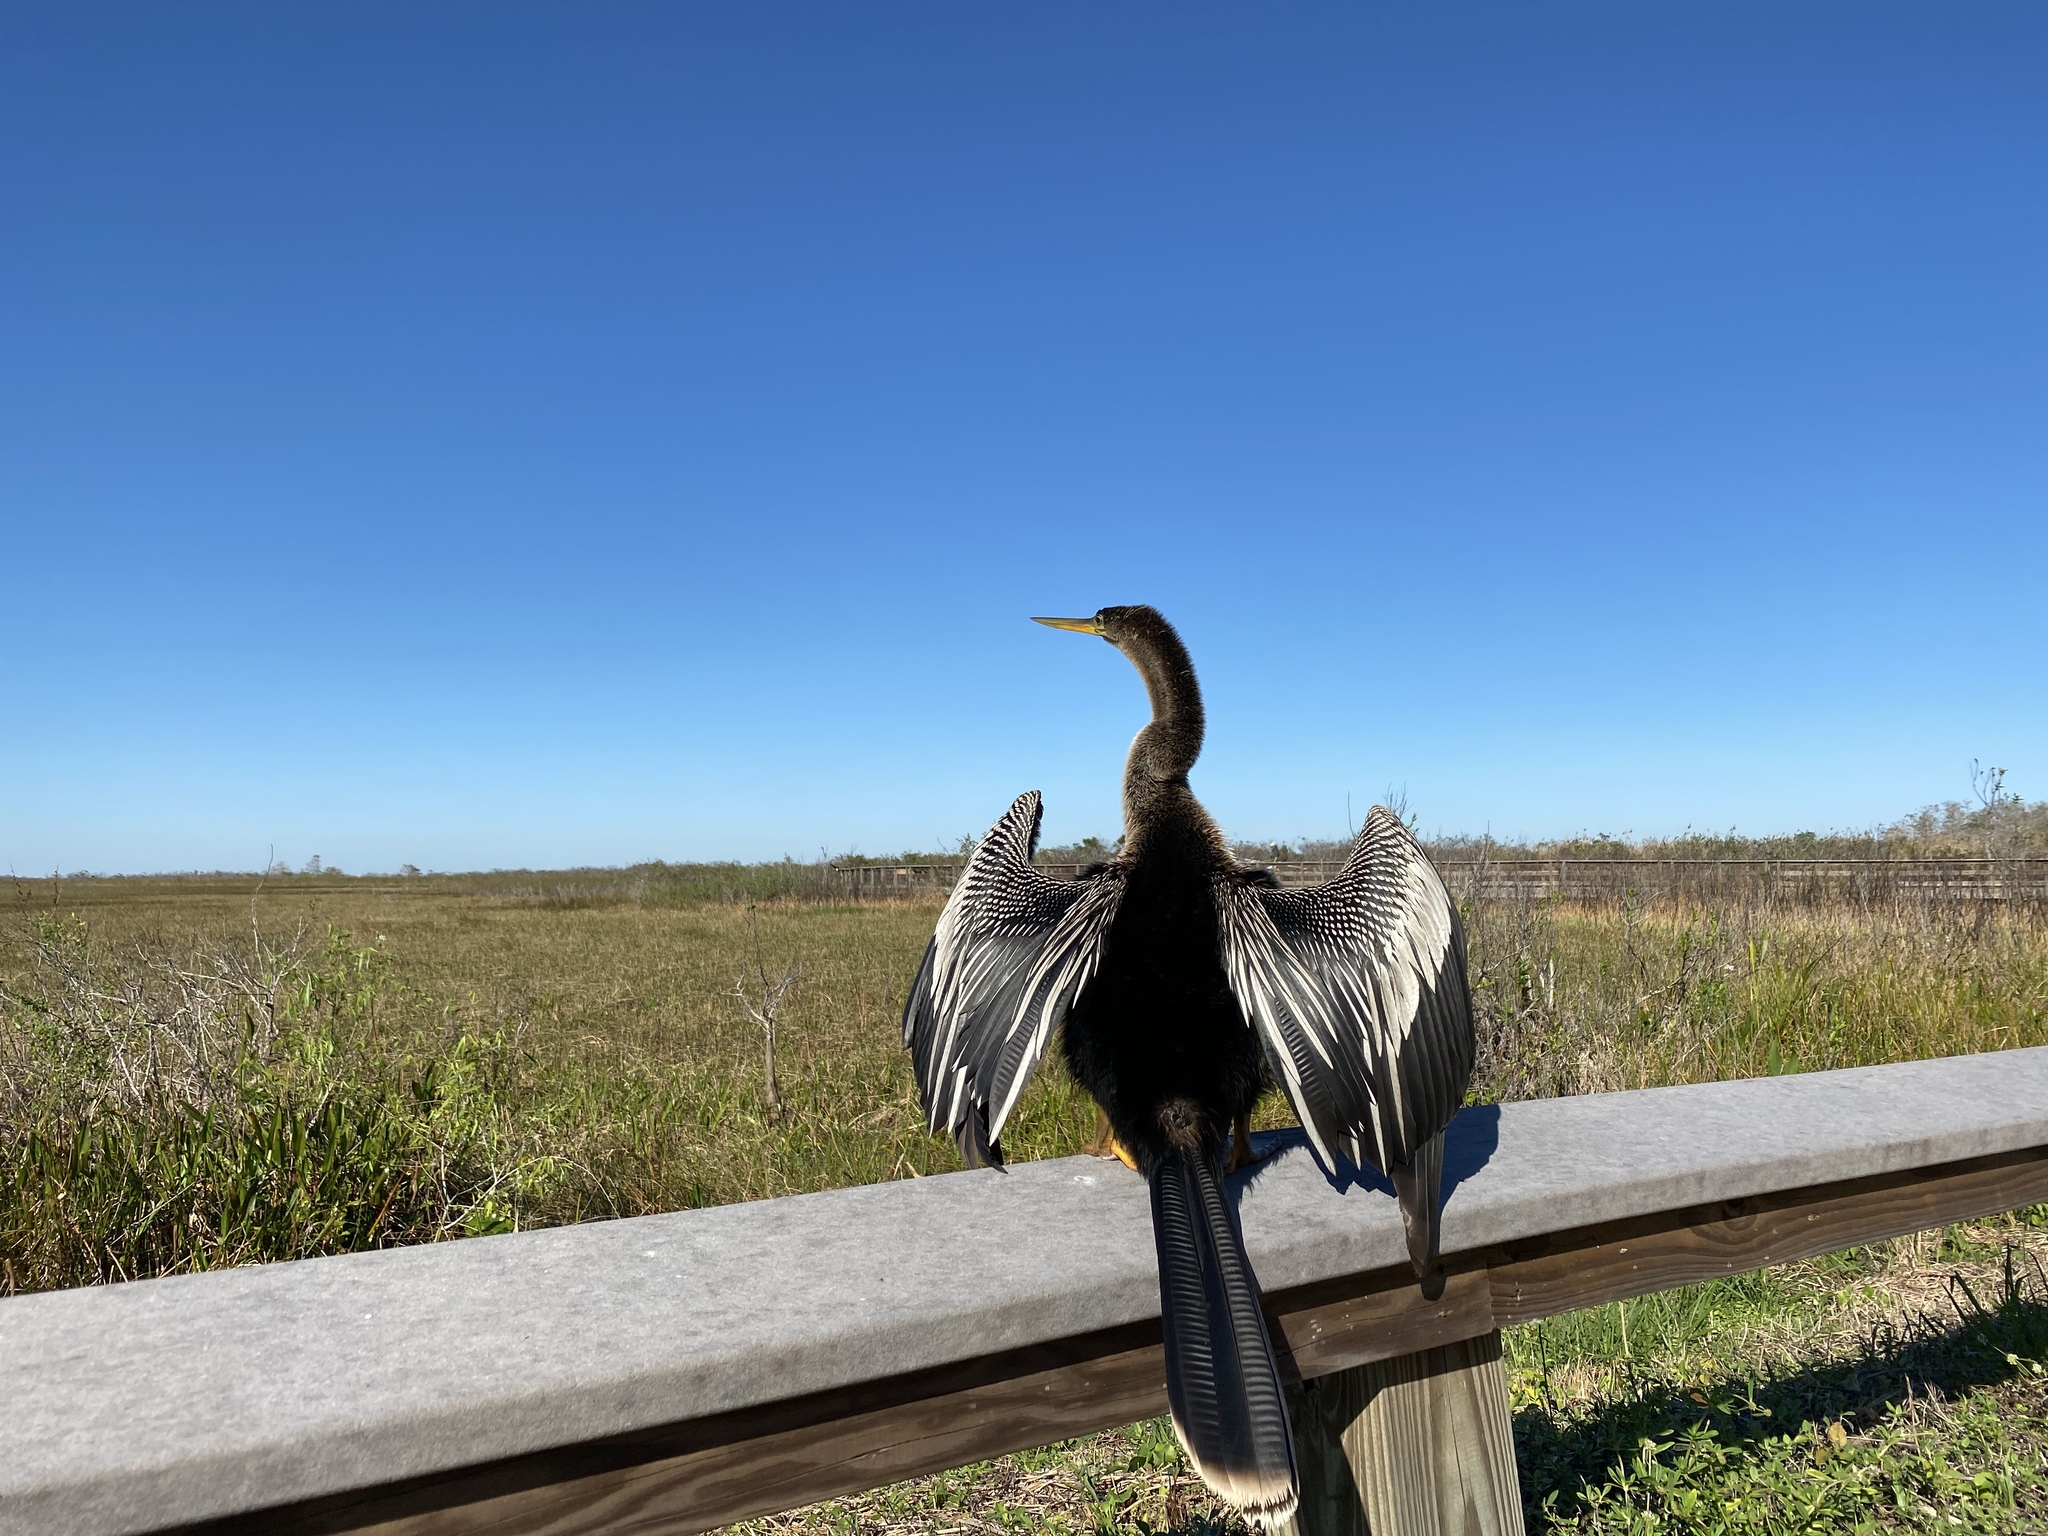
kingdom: Animalia
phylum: Chordata
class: Aves
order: Suliformes
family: Anhingidae
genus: Anhinga
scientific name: Anhinga anhinga
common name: Anhinga
